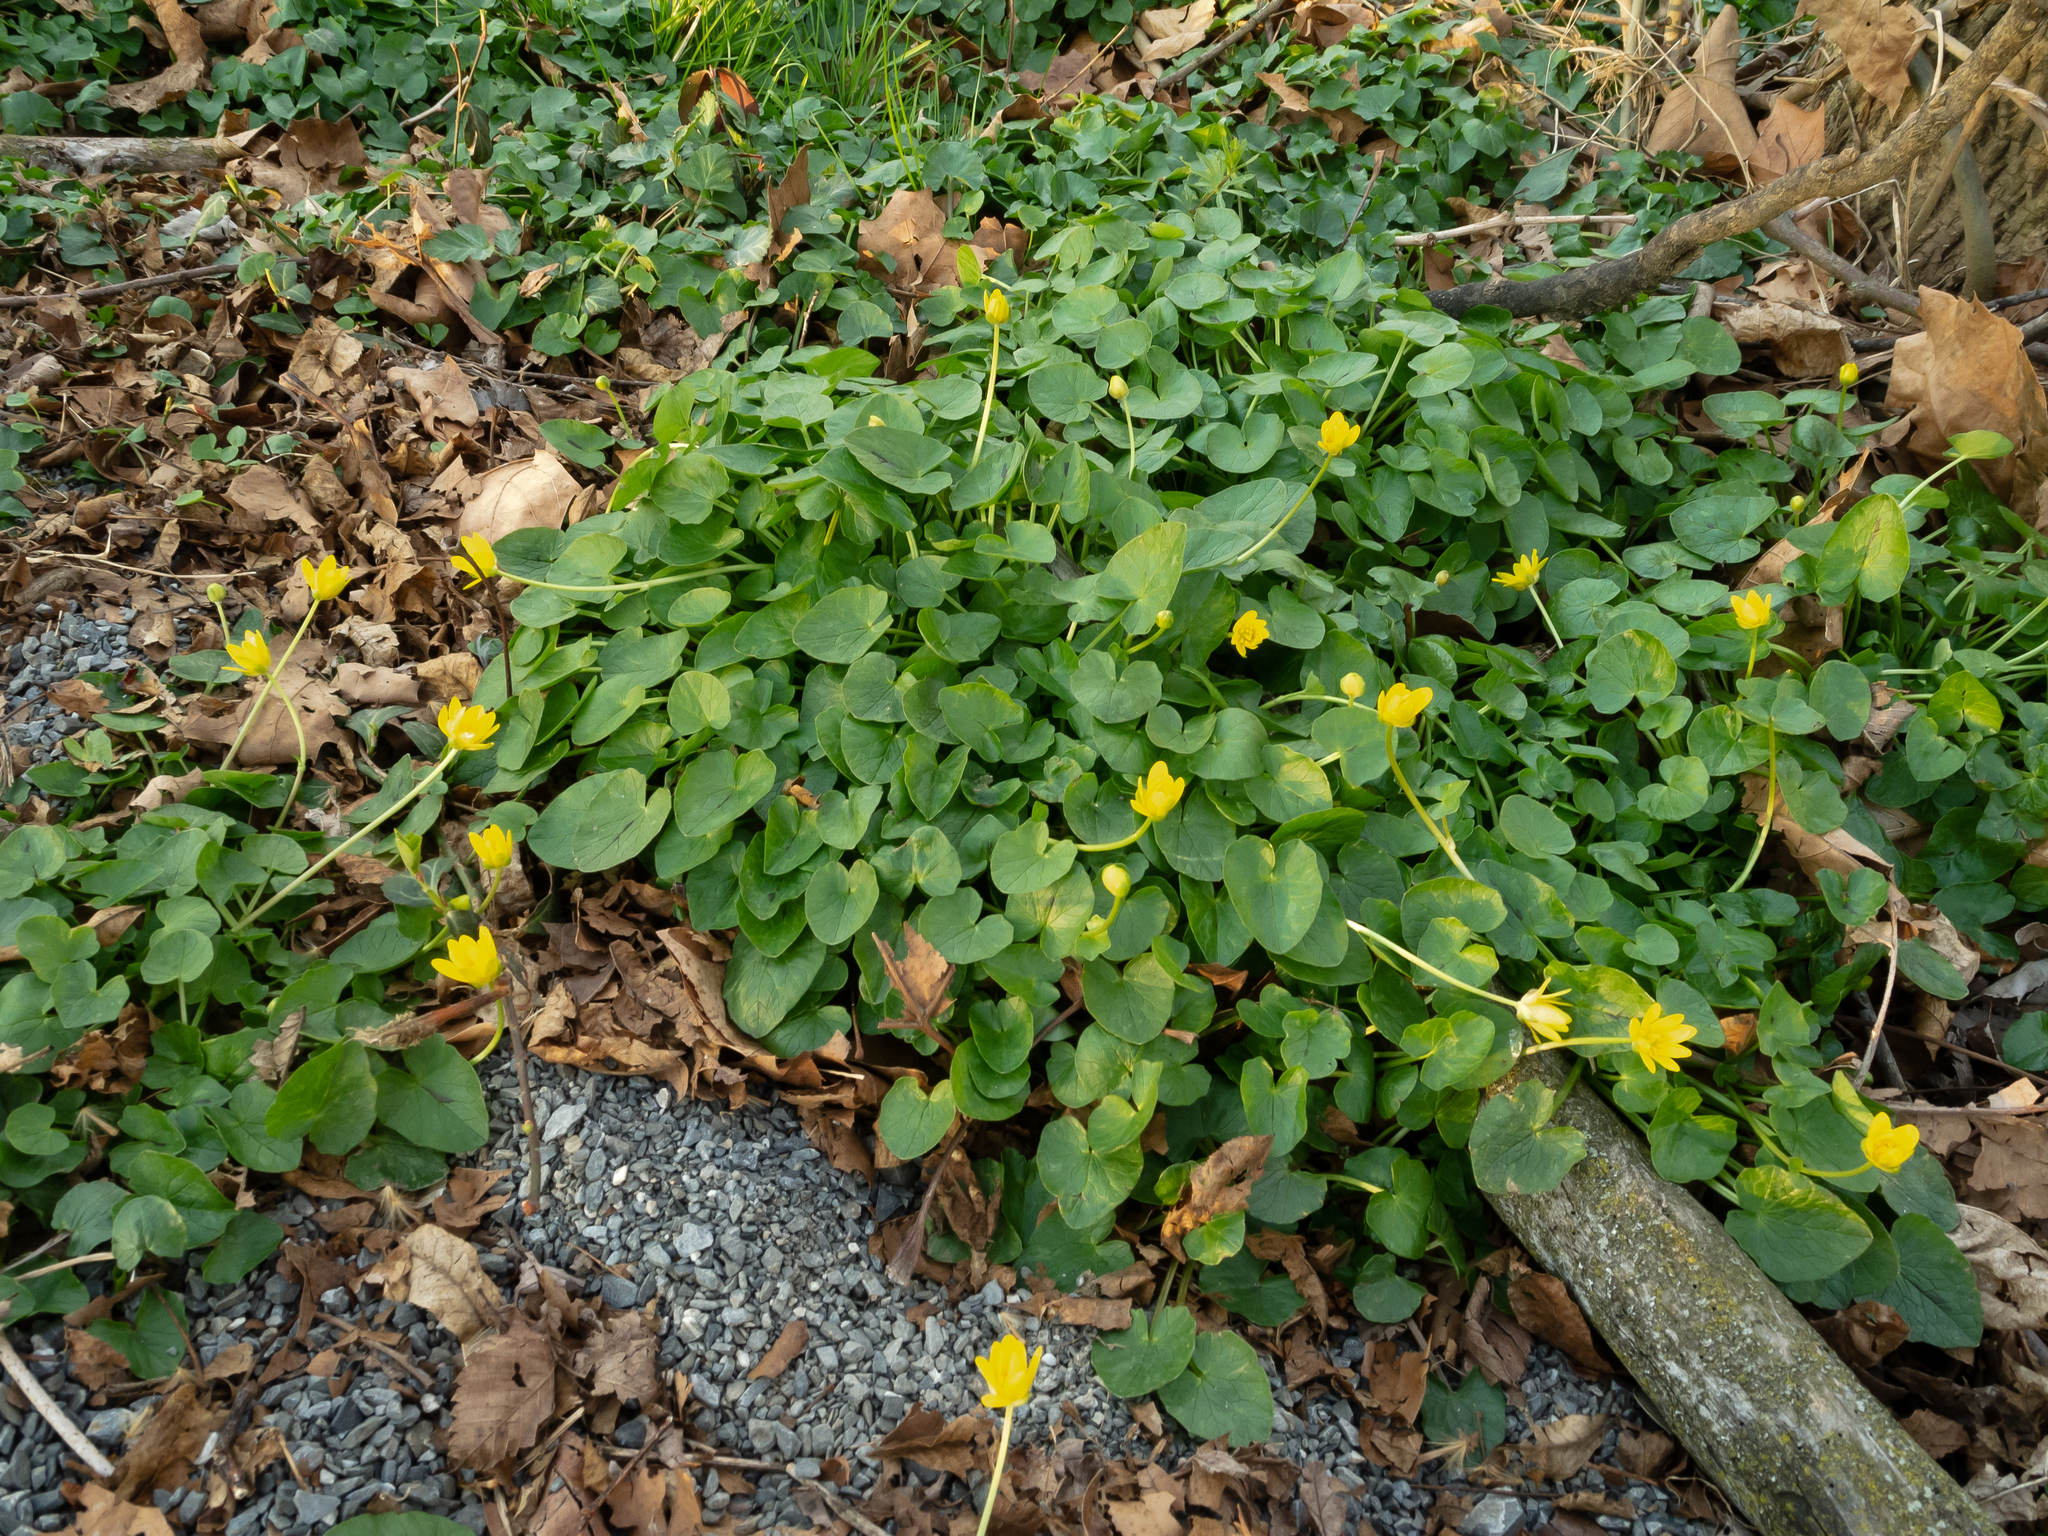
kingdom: Plantae
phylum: Tracheophyta
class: Magnoliopsida
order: Ranunculales
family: Ranunculaceae
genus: Ficaria
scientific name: Ficaria verna
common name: Lesser celandine
